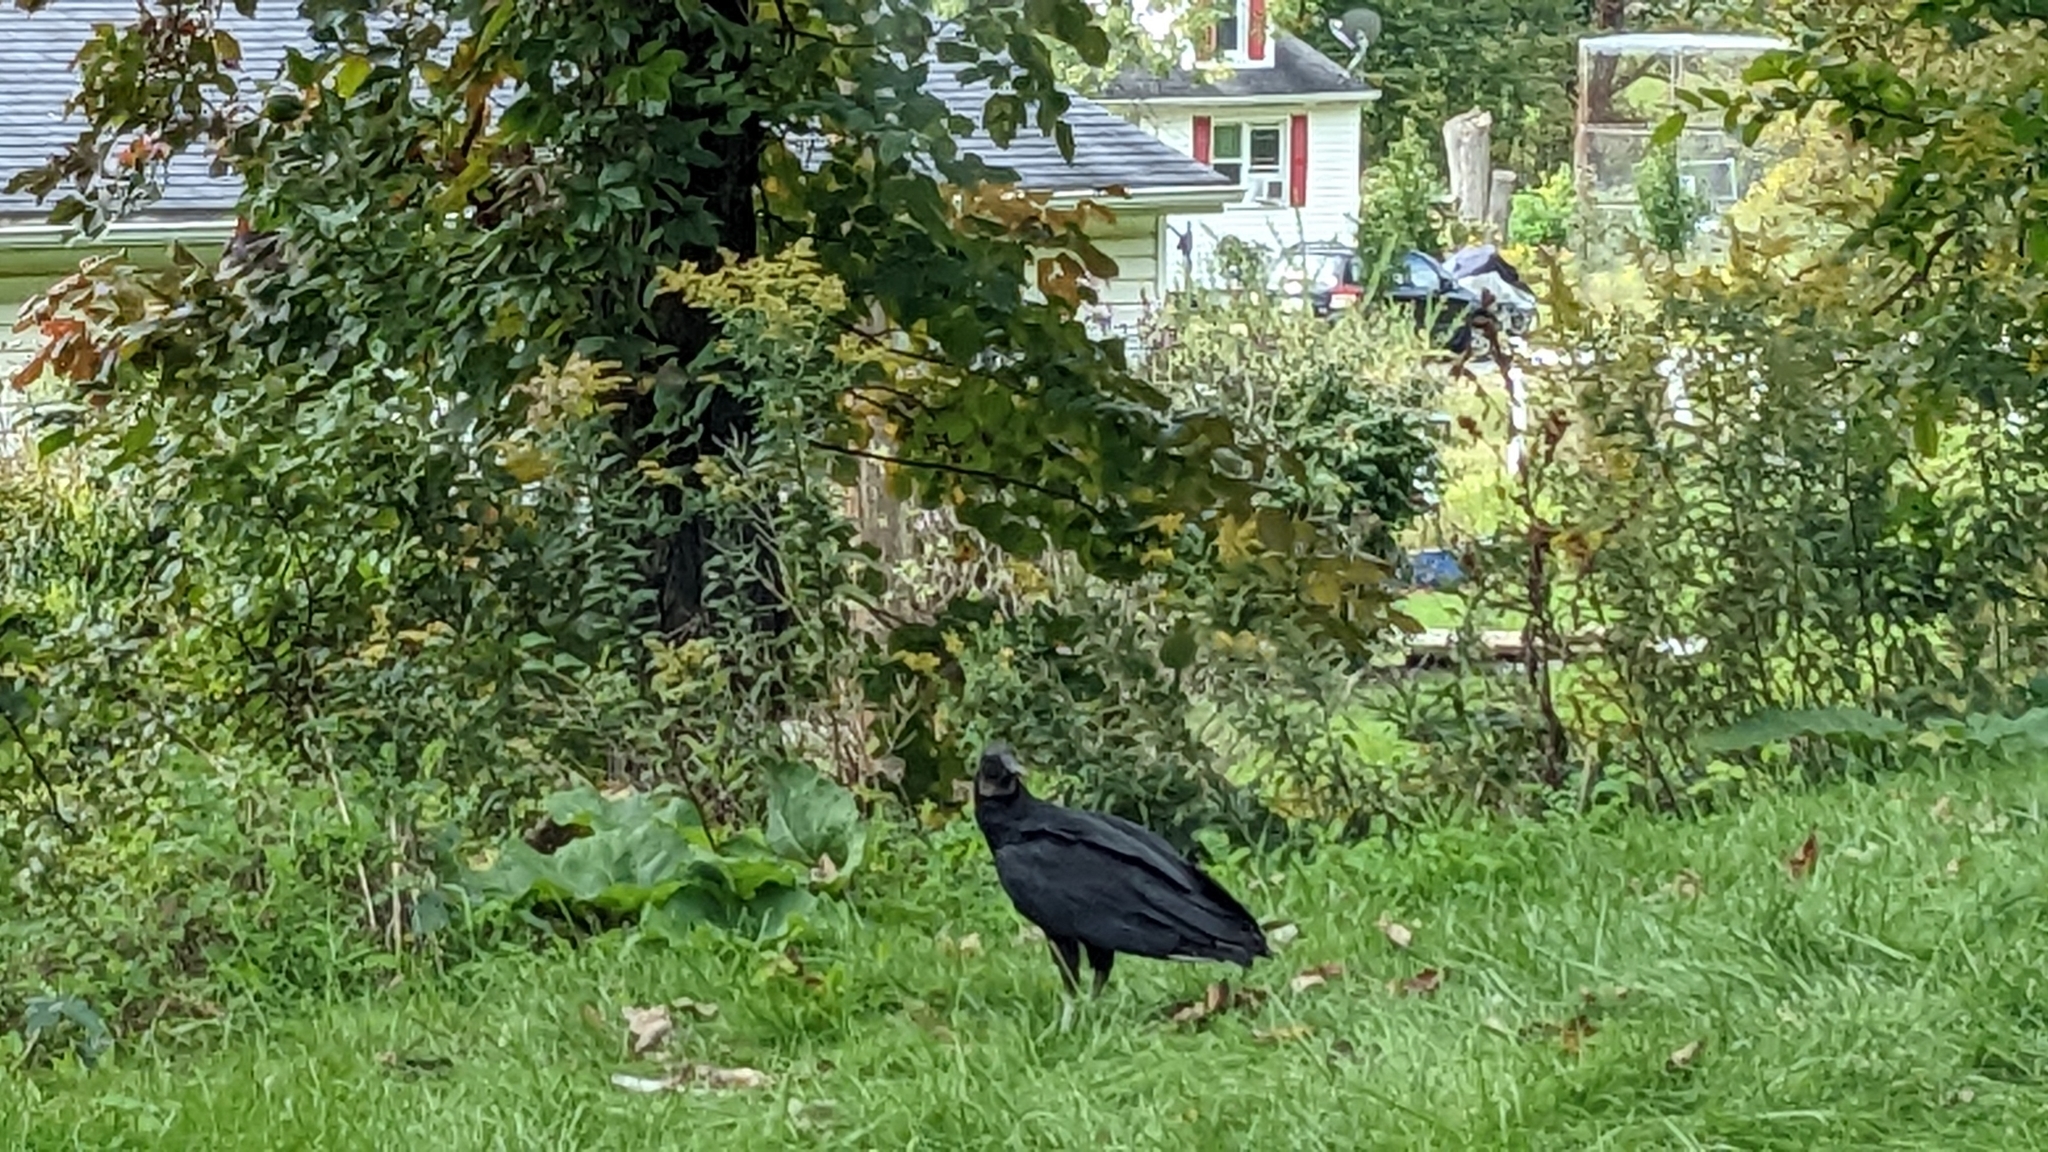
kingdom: Animalia
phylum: Chordata
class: Aves
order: Accipitriformes
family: Cathartidae
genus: Coragyps
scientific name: Coragyps atratus
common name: Black vulture
